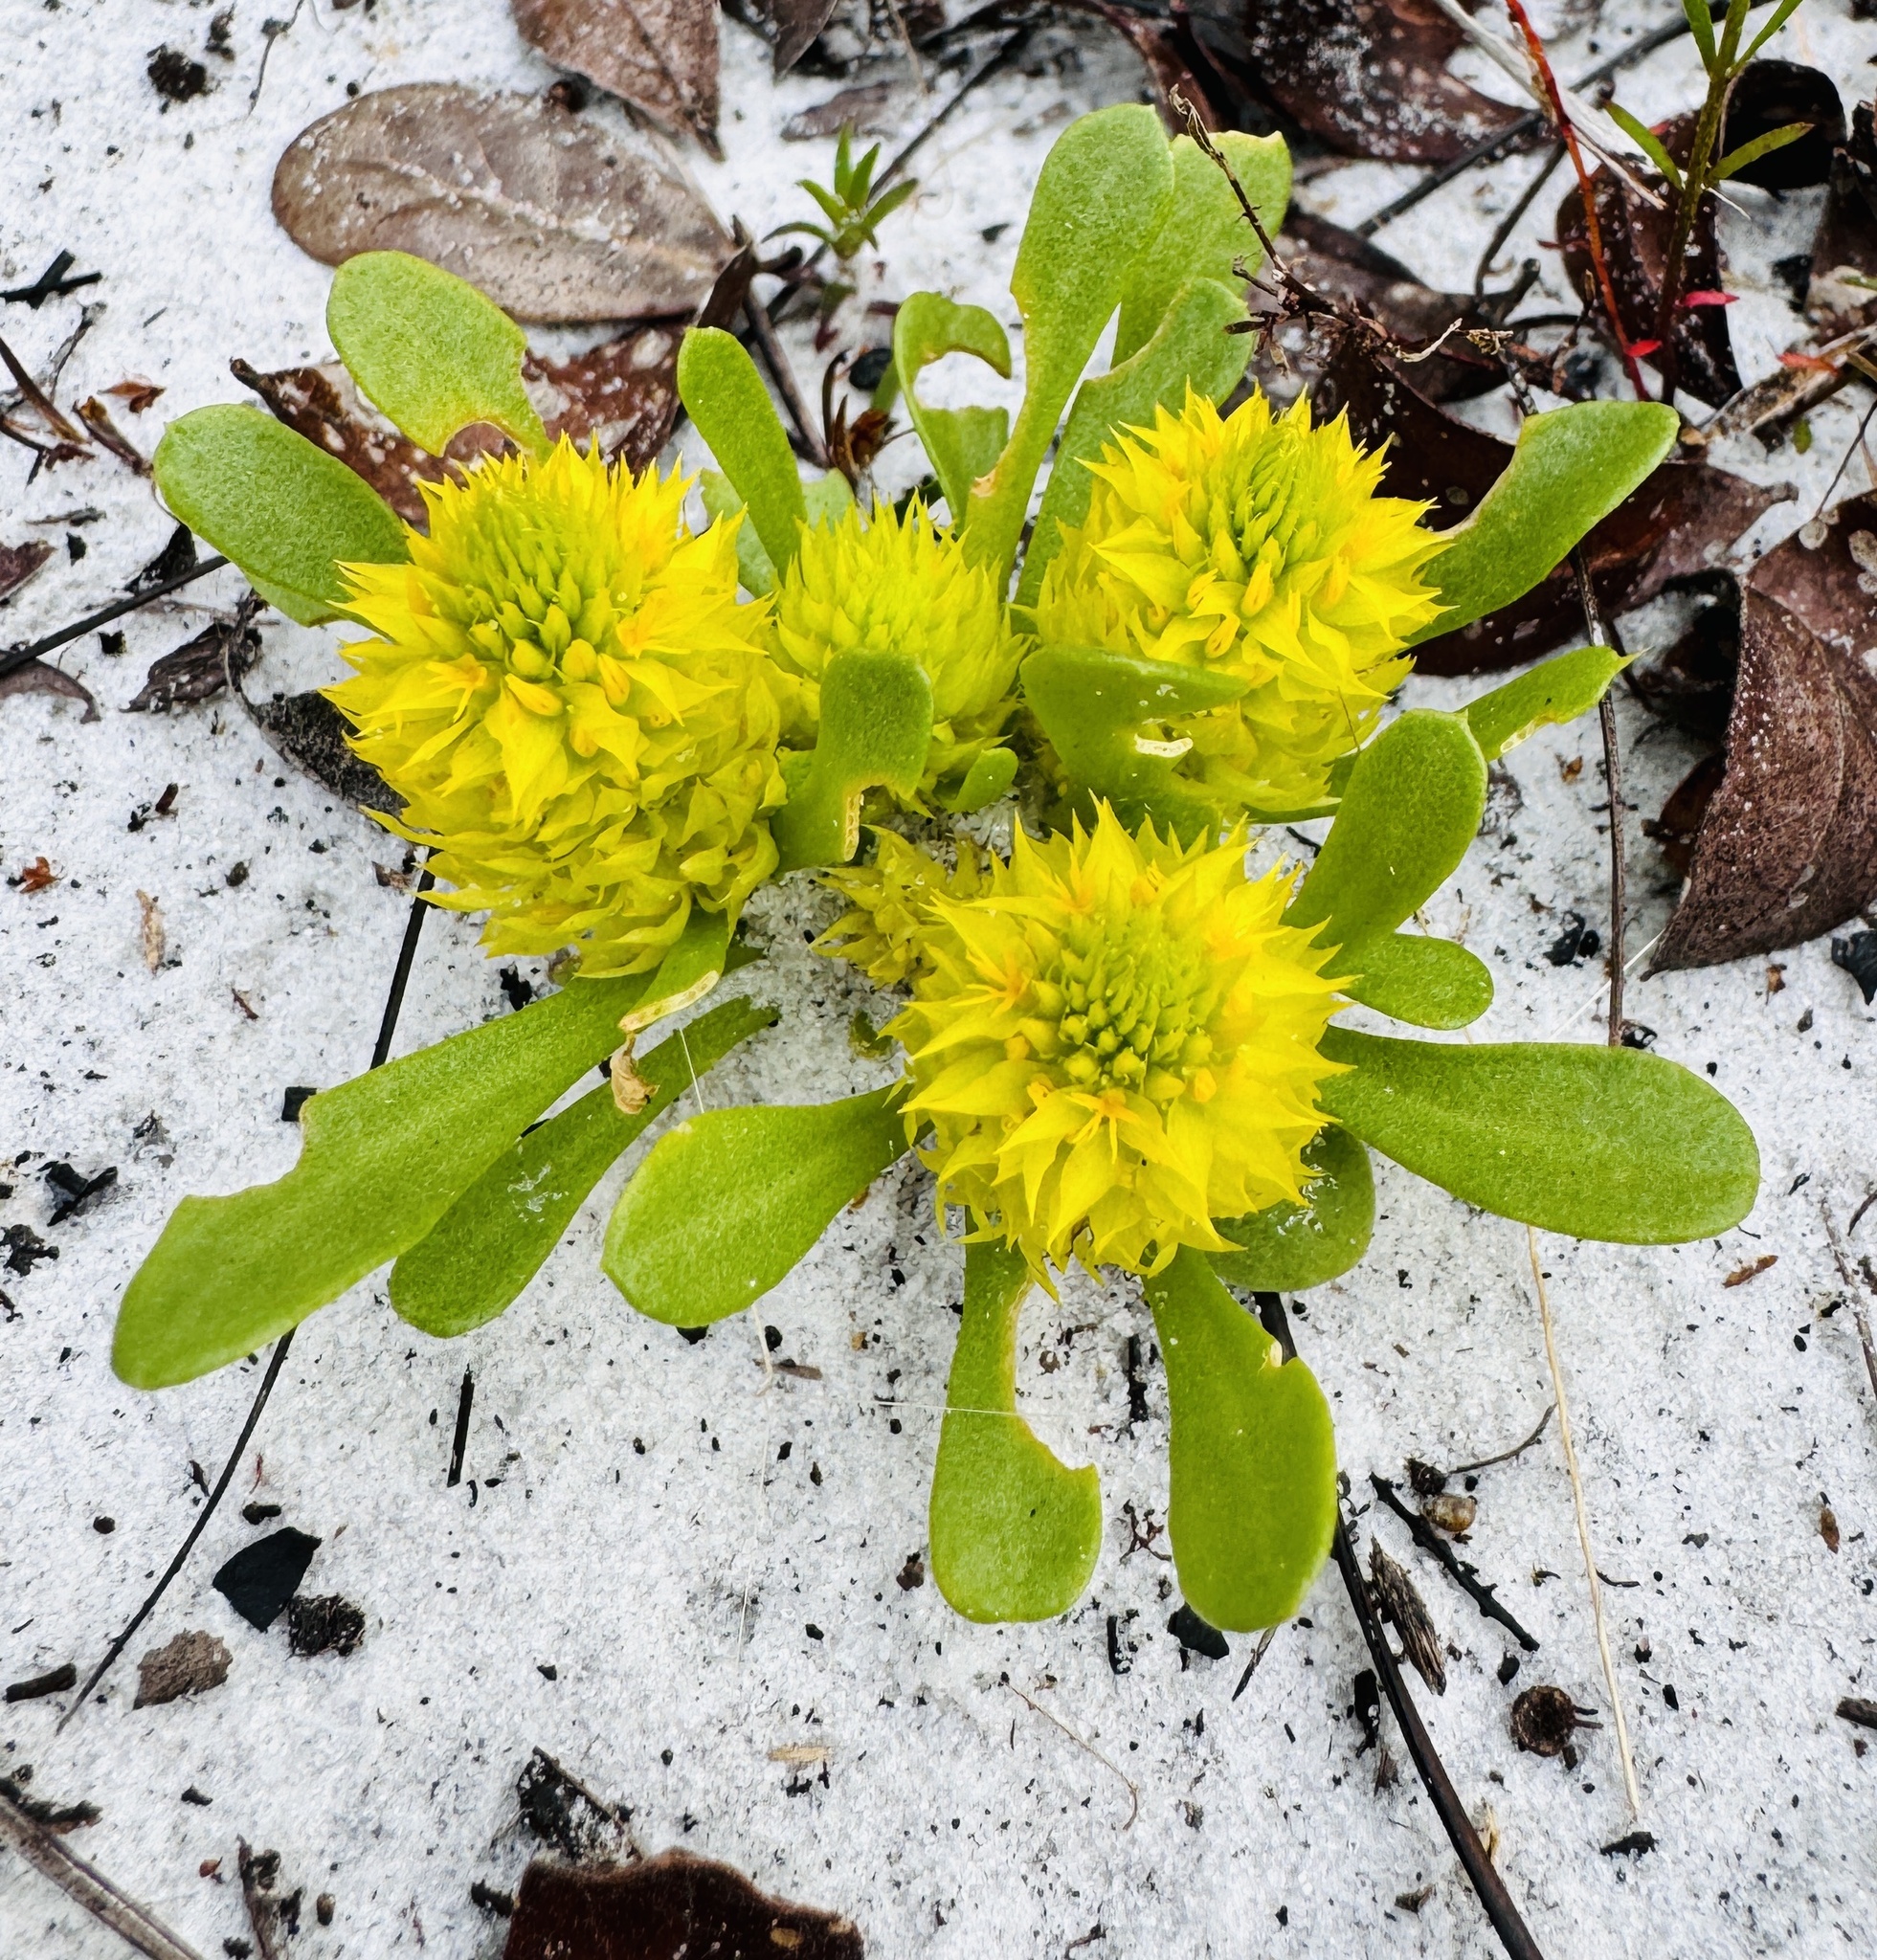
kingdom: Plantae
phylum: Tracheophyta
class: Magnoliopsida
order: Fabales
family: Polygalaceae
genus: Polygala
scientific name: Polygala nana
